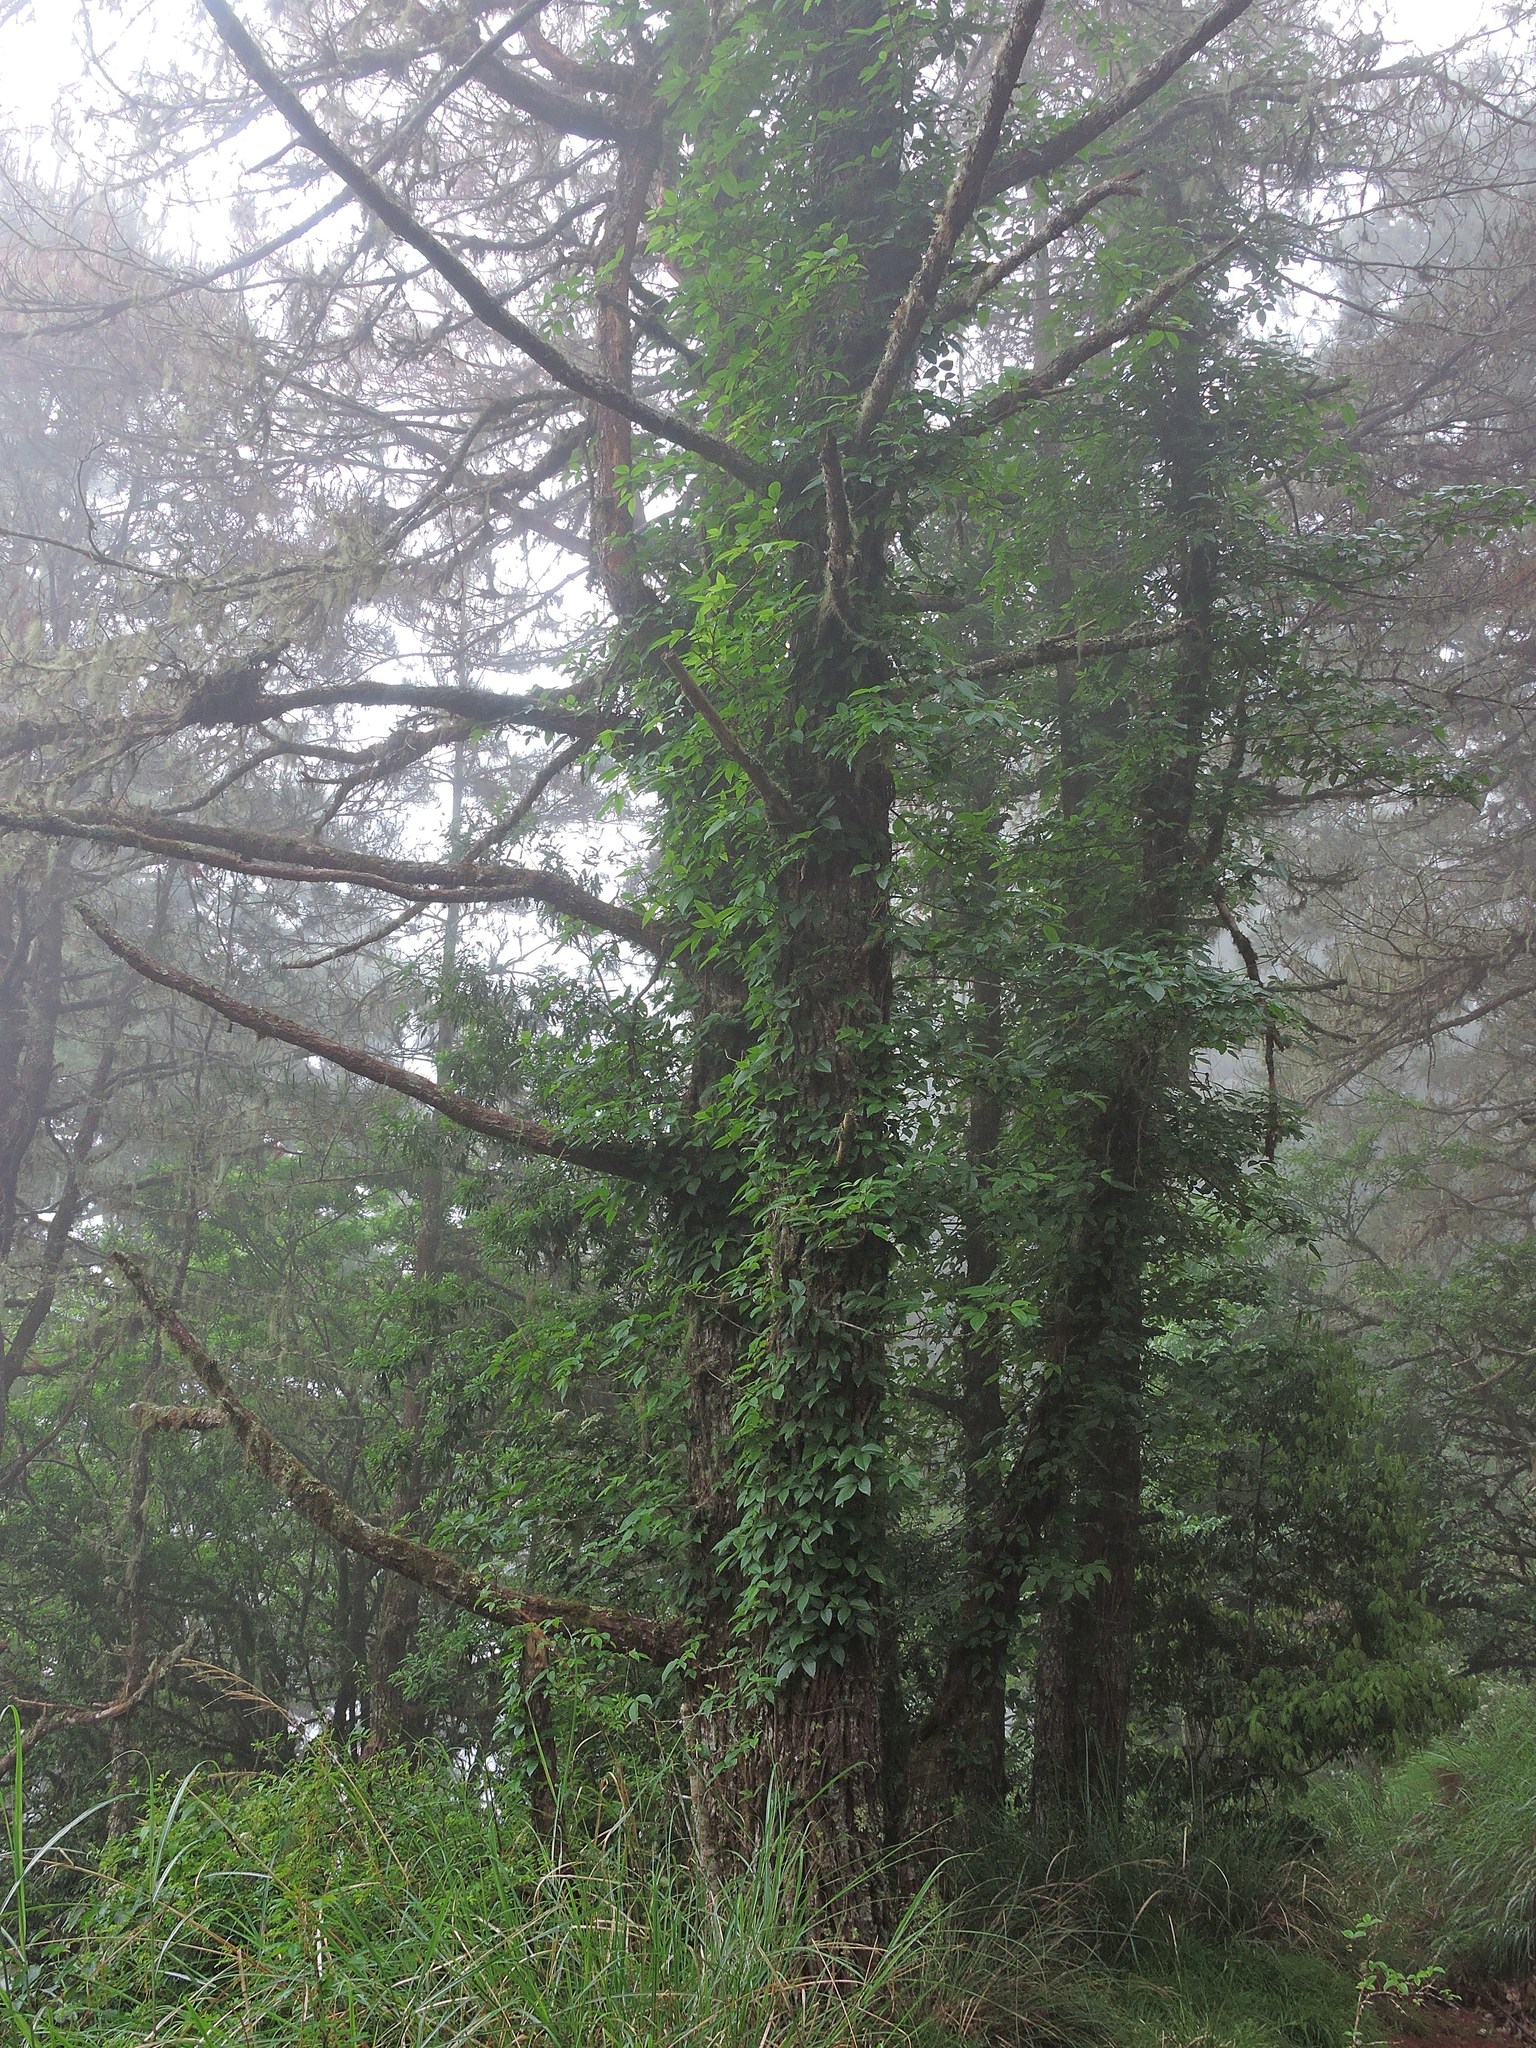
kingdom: Plantae
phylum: Tracheophyta
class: Magnoliopsida
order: Sapindales
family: Anacardiaceae
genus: Toxicodendron
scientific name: Toxicodendron orientale
